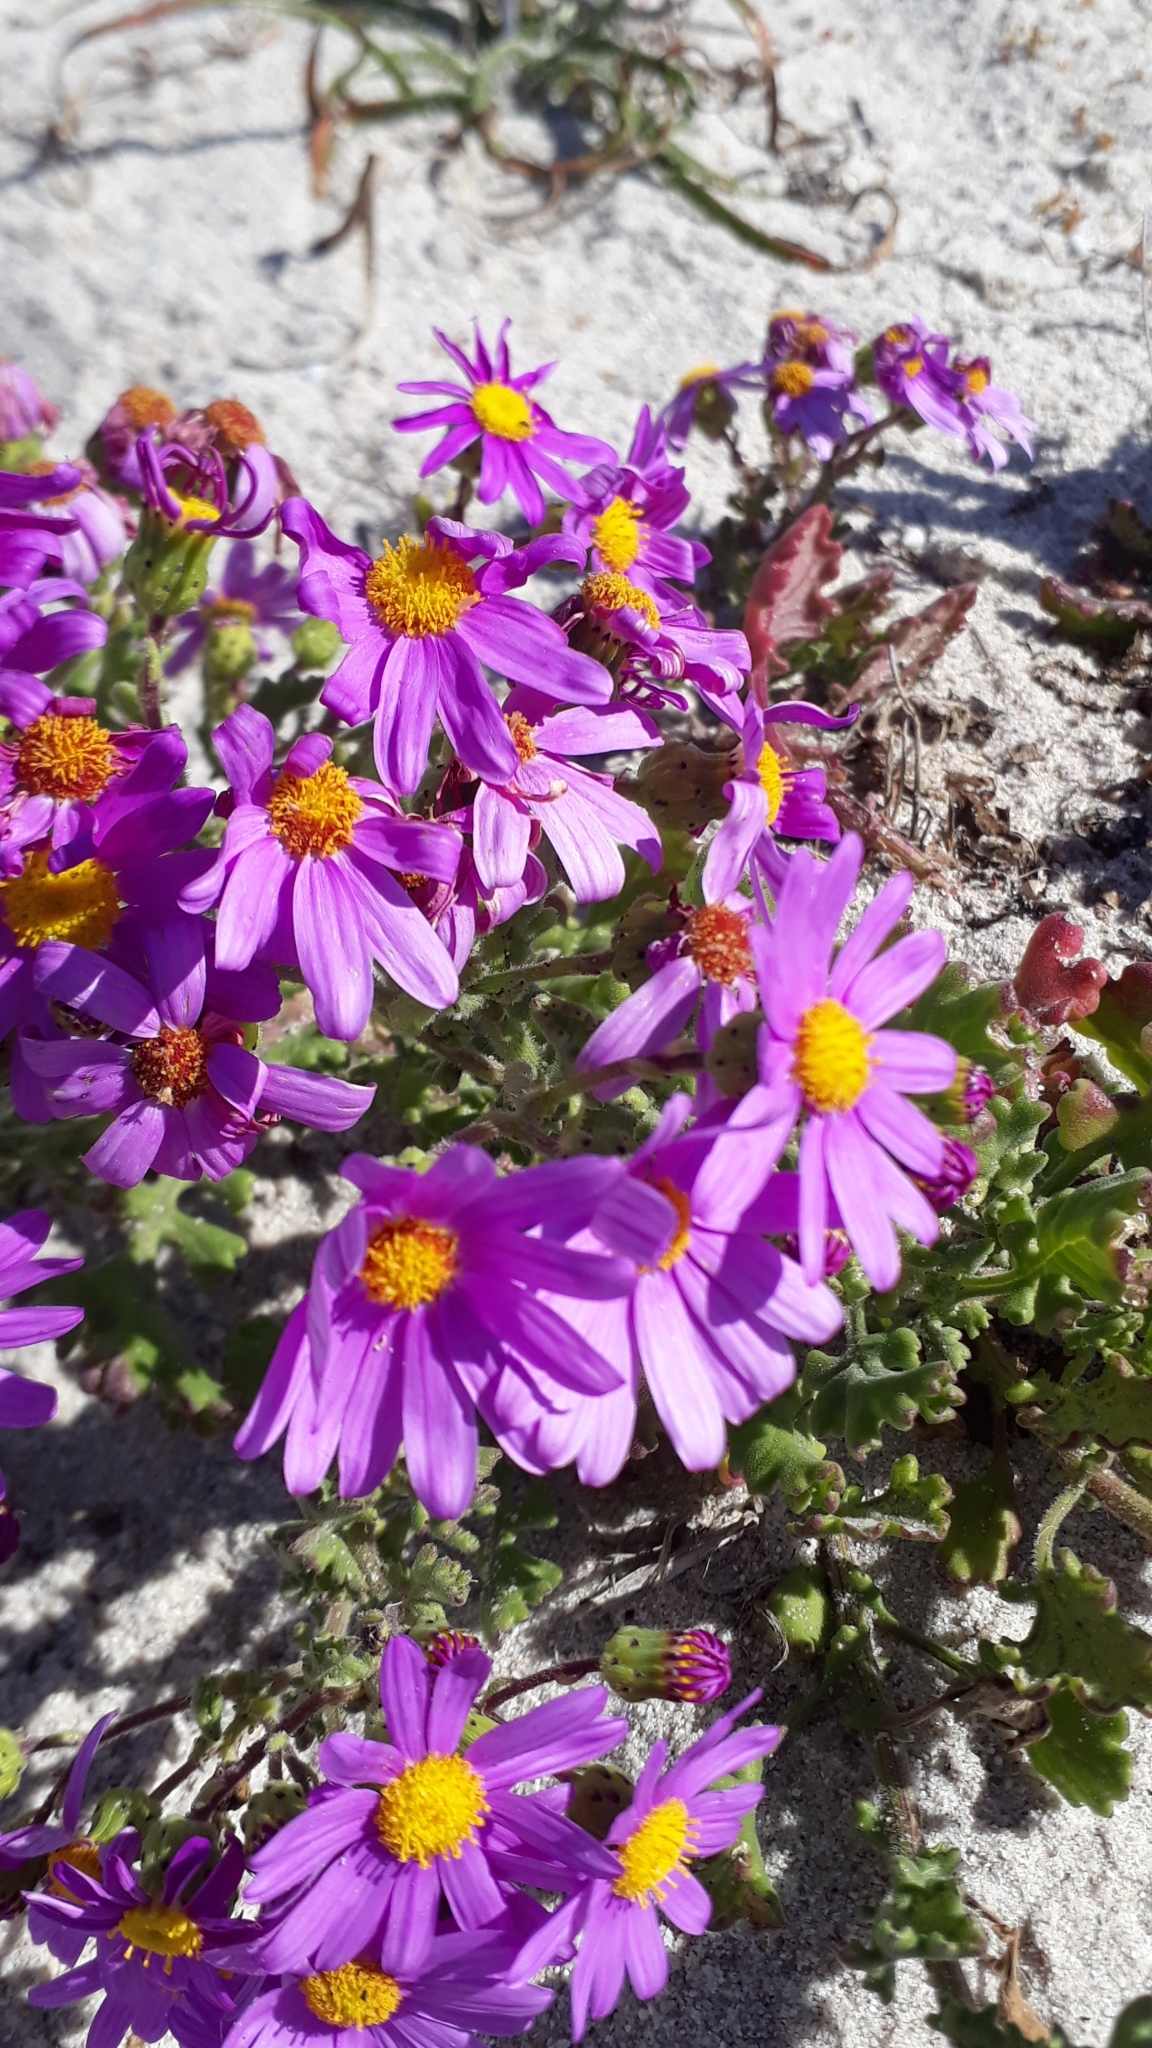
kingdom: Plantae
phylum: Tracheophyta
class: Magnoliopsida
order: Asterales
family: Asteraceae
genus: Senecio
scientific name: Senecio elegans
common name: Purple groundsel
